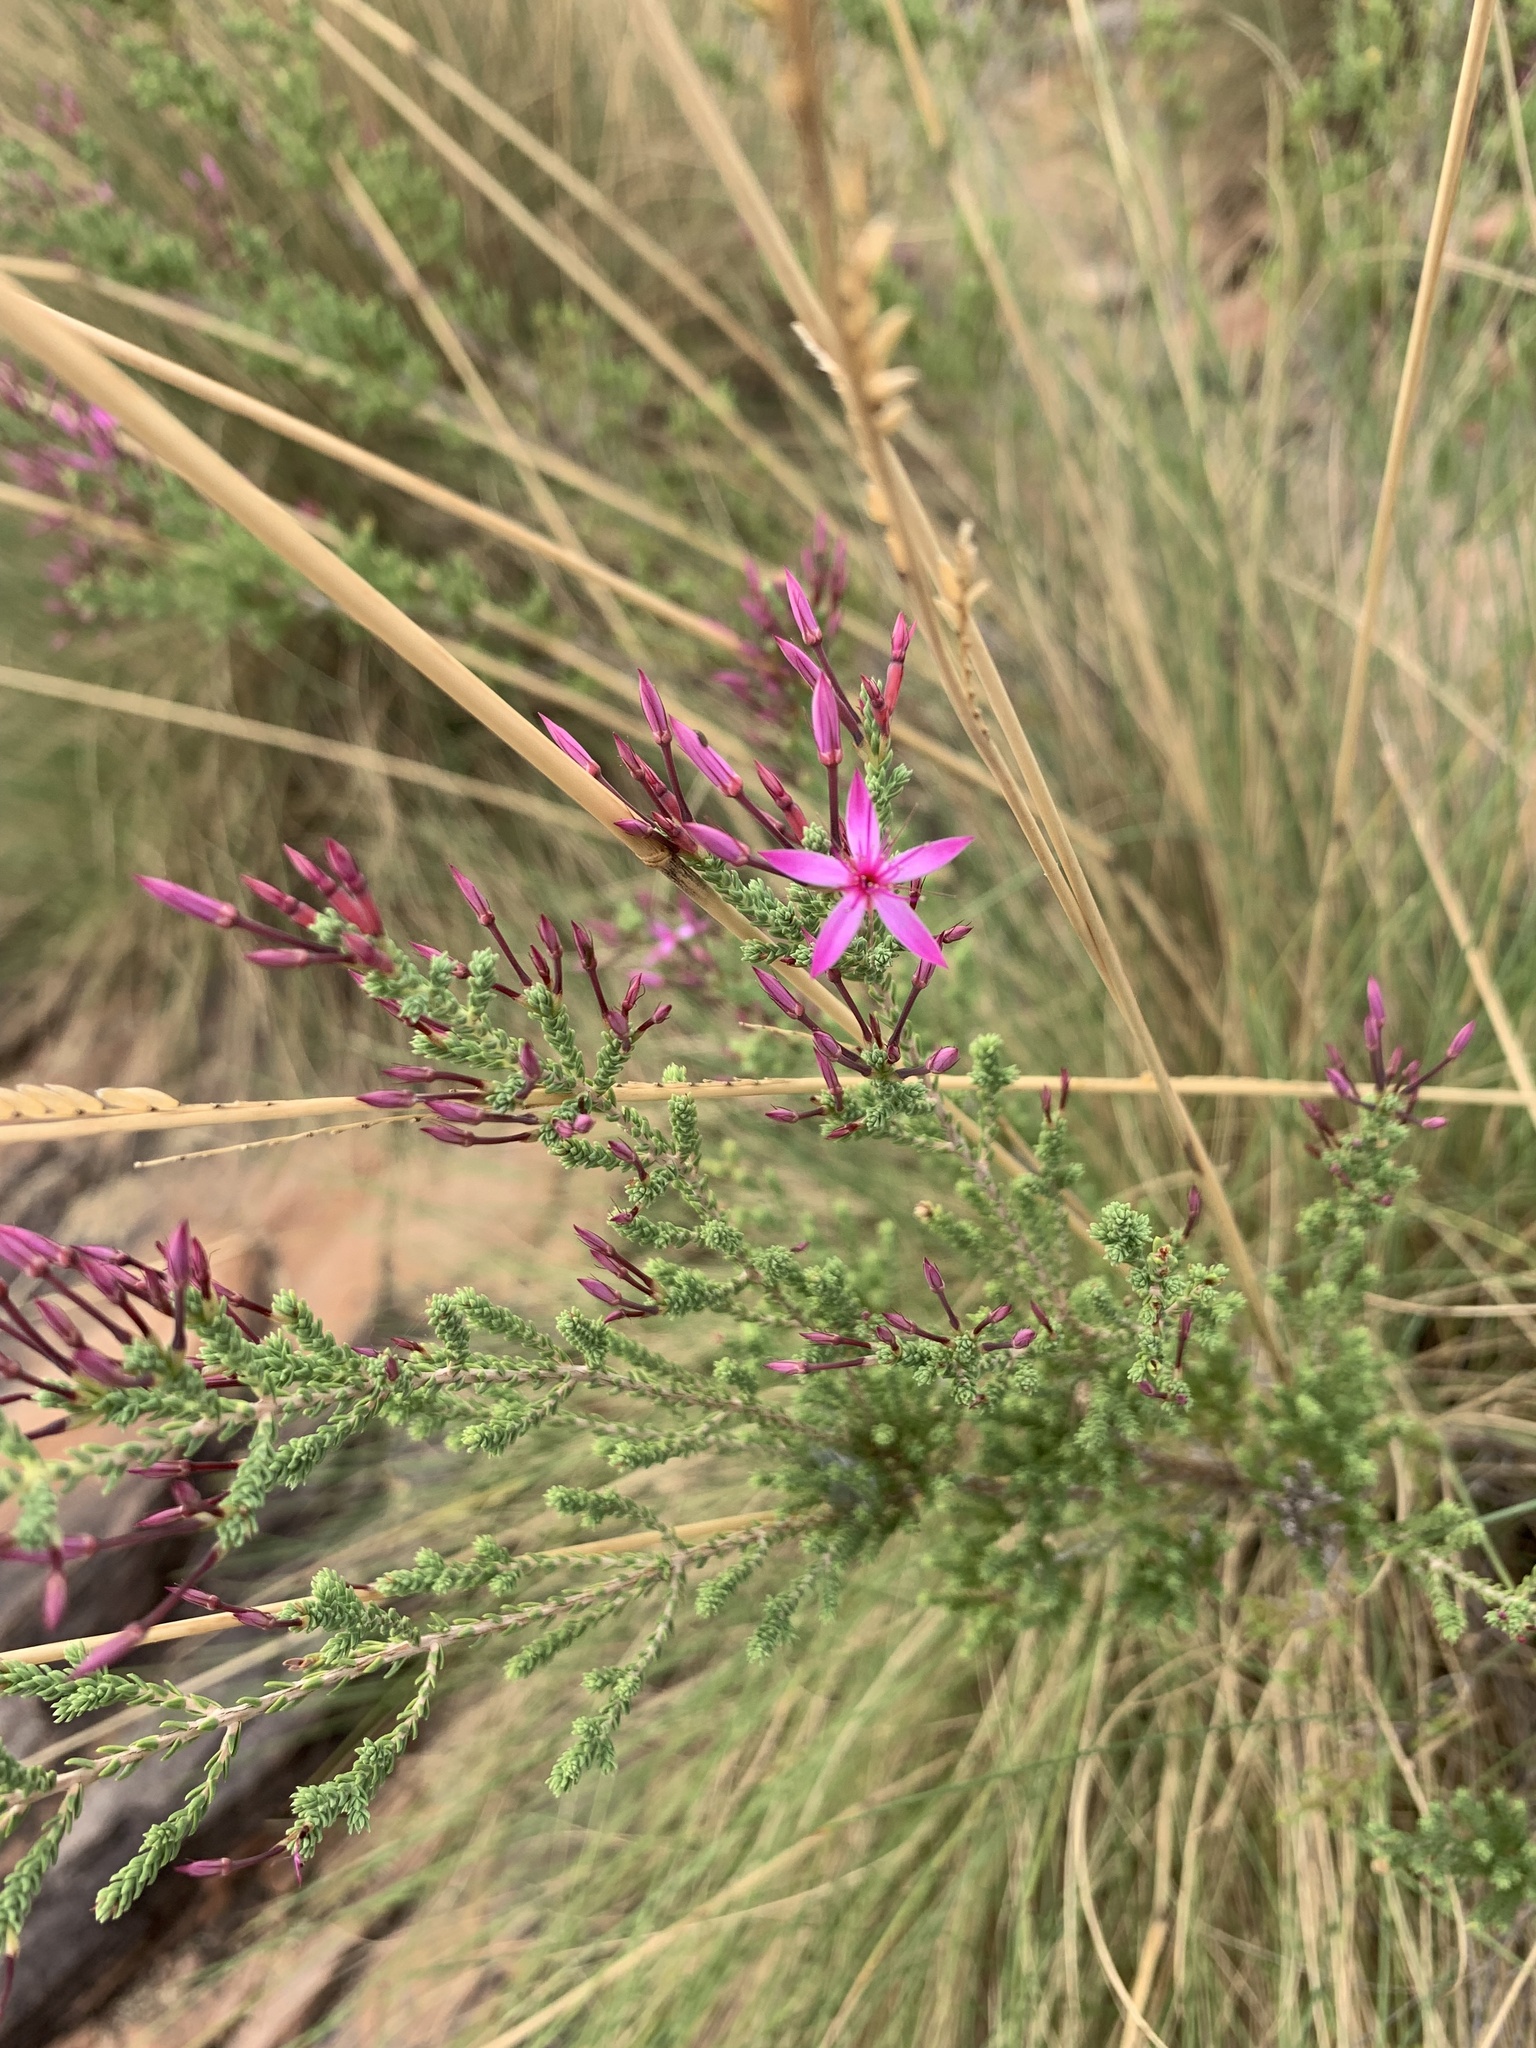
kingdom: Plantae
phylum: Tracheophyta
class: Magnoliopsida
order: Myrtales
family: Myrtaceae
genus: Calytrix
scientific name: Calytrix exstipulata
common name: Kimberley heather
